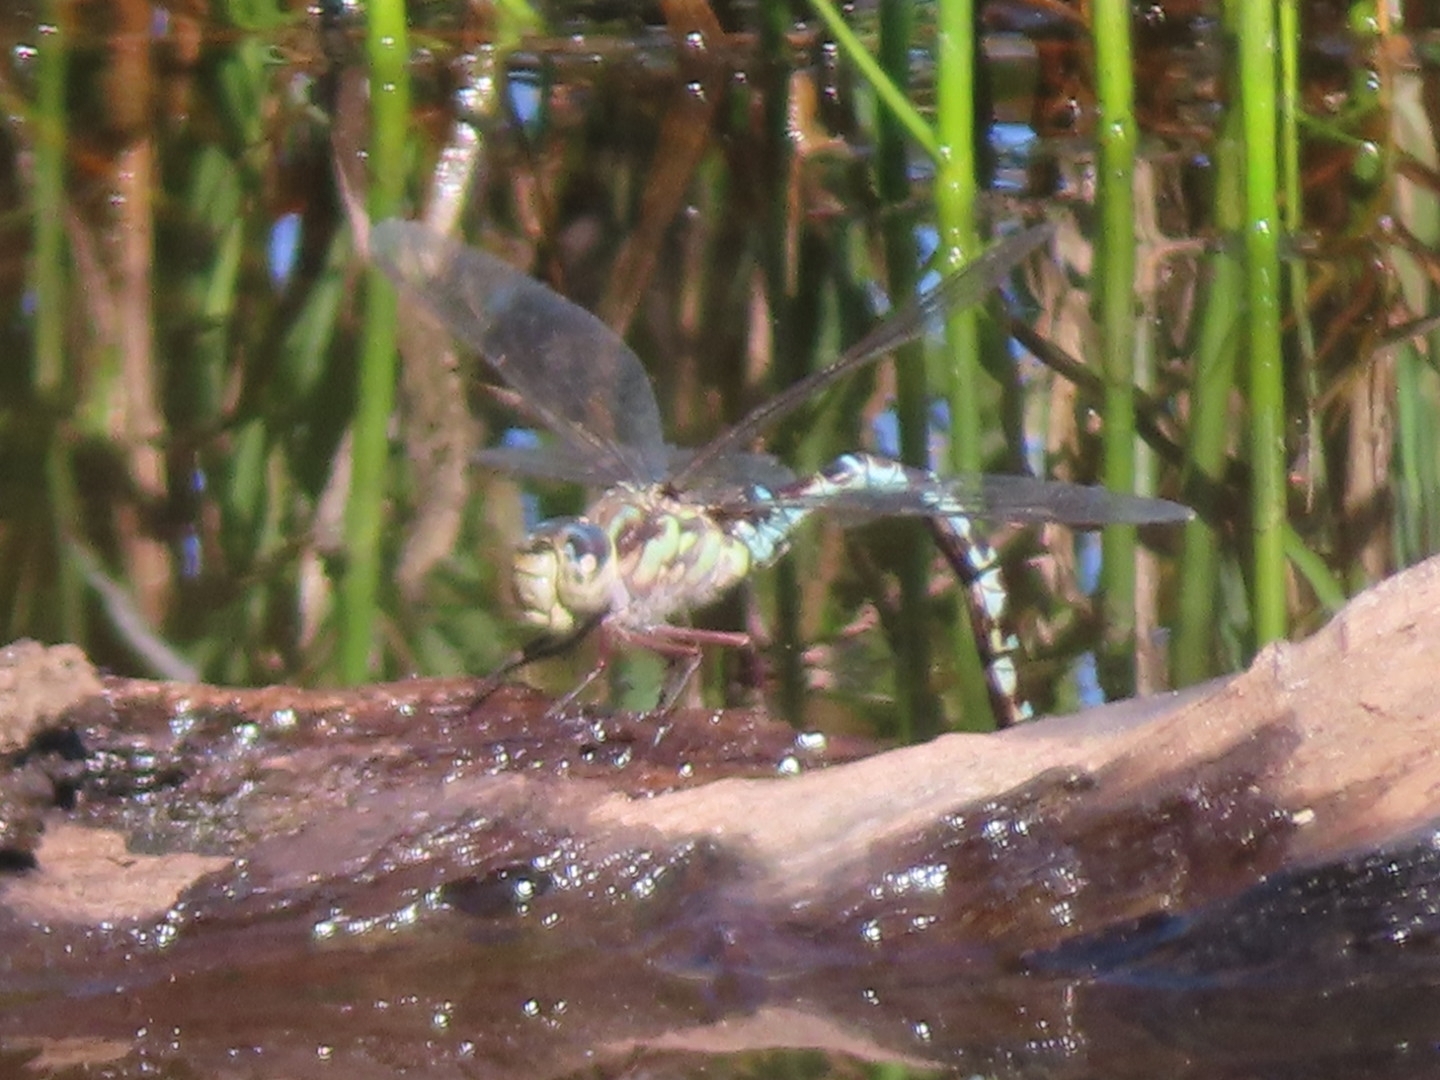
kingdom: Animalia
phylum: Arthropoda
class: Insecta
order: Odonata
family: Aeshnidae
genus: Aeshna
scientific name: Aeshna clepsydra
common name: Mottled darner
